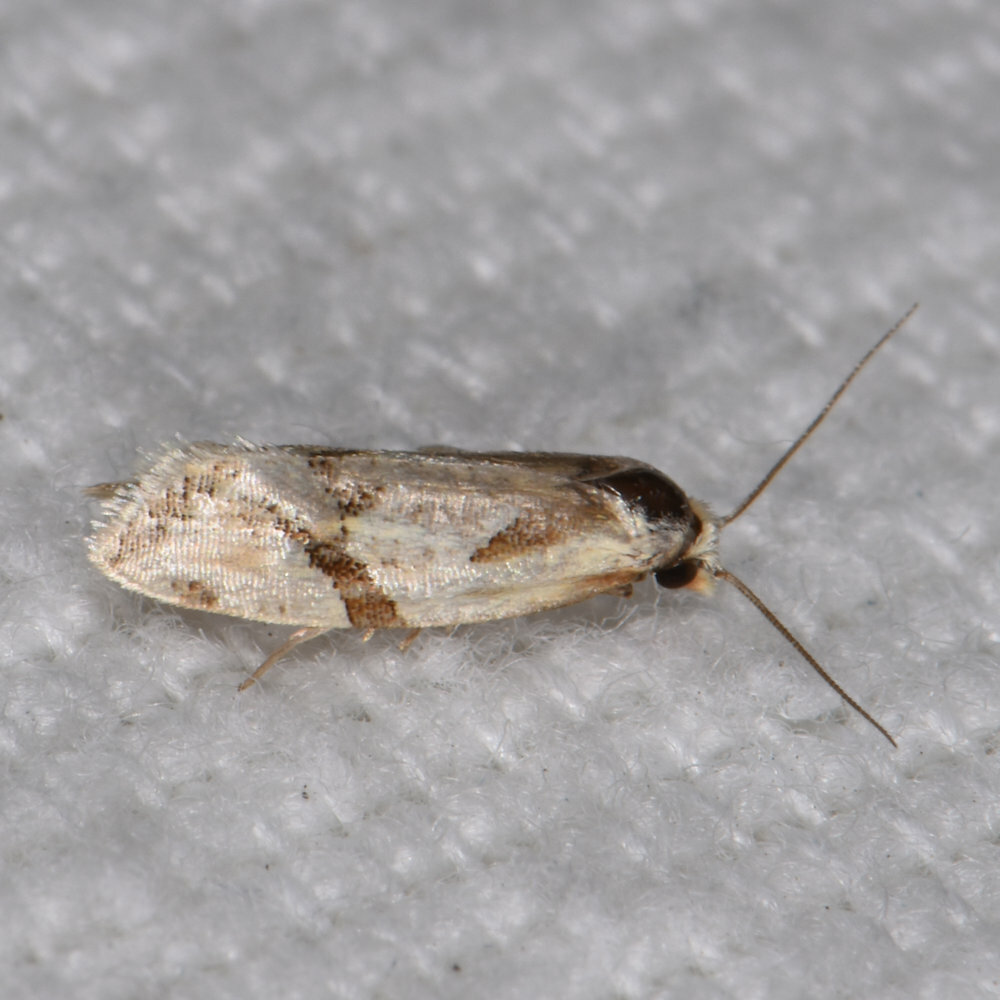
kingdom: Animalia
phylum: Arthropoda
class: Insecta
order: Lepidoptera
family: Tortricidae
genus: Aethes
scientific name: Aethes baloghi
